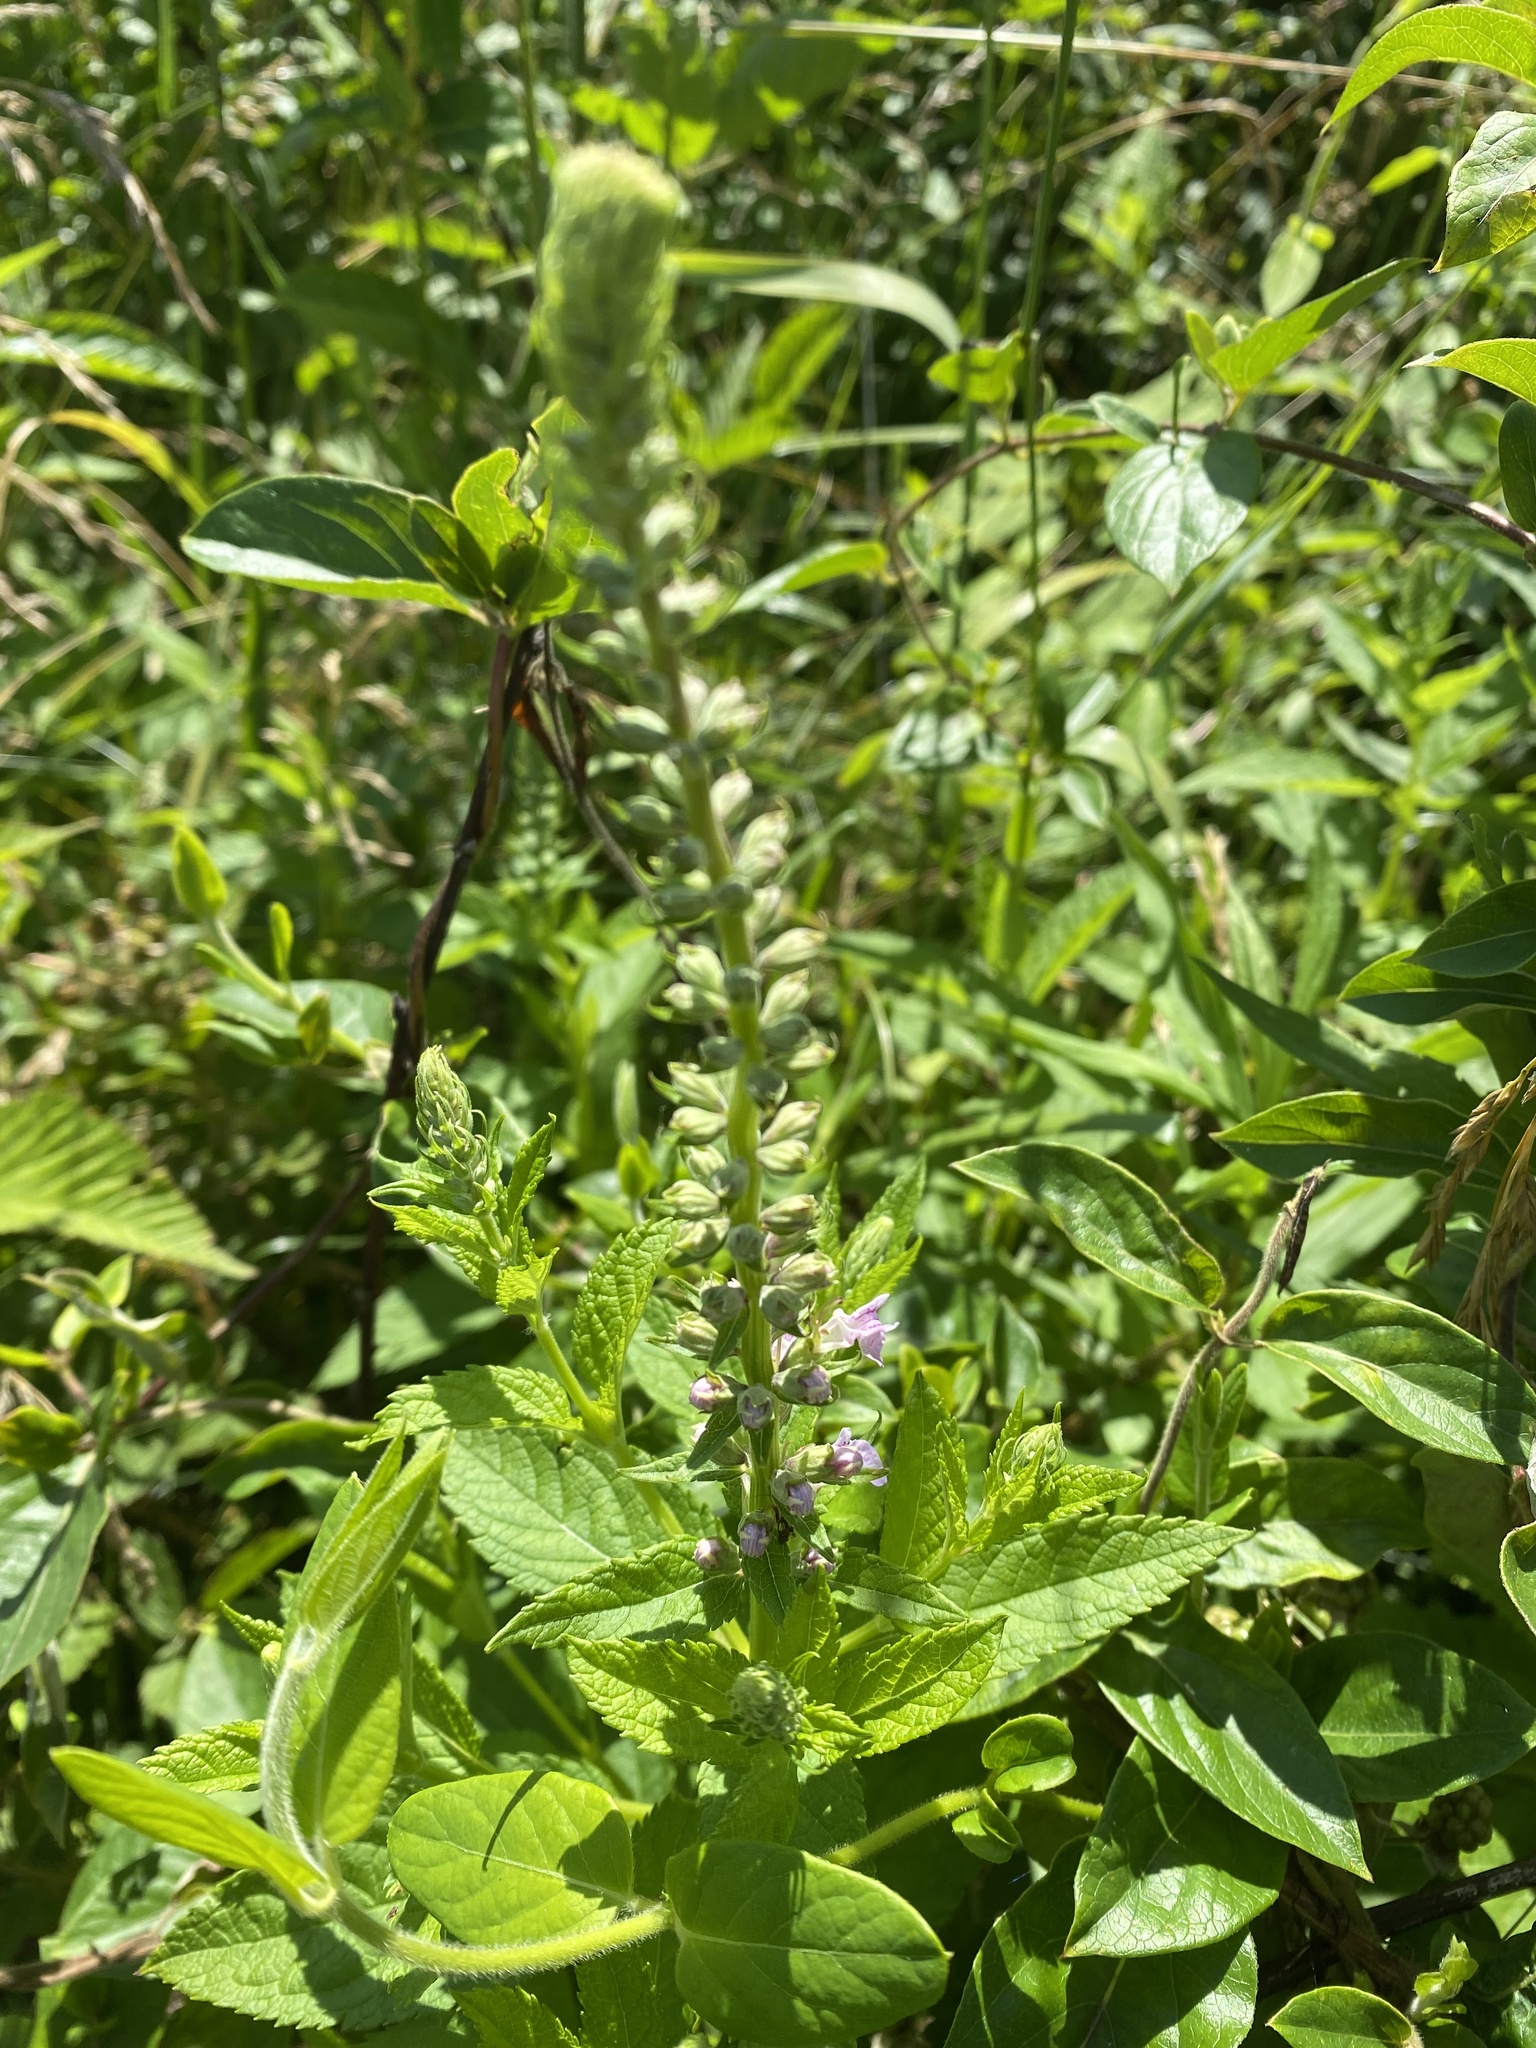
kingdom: Plantae
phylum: Tracheophyta
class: Magnoliopsida
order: Lamiales
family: Lamiaceae
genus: Teucrium
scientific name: Teucrium canadense
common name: American germander
